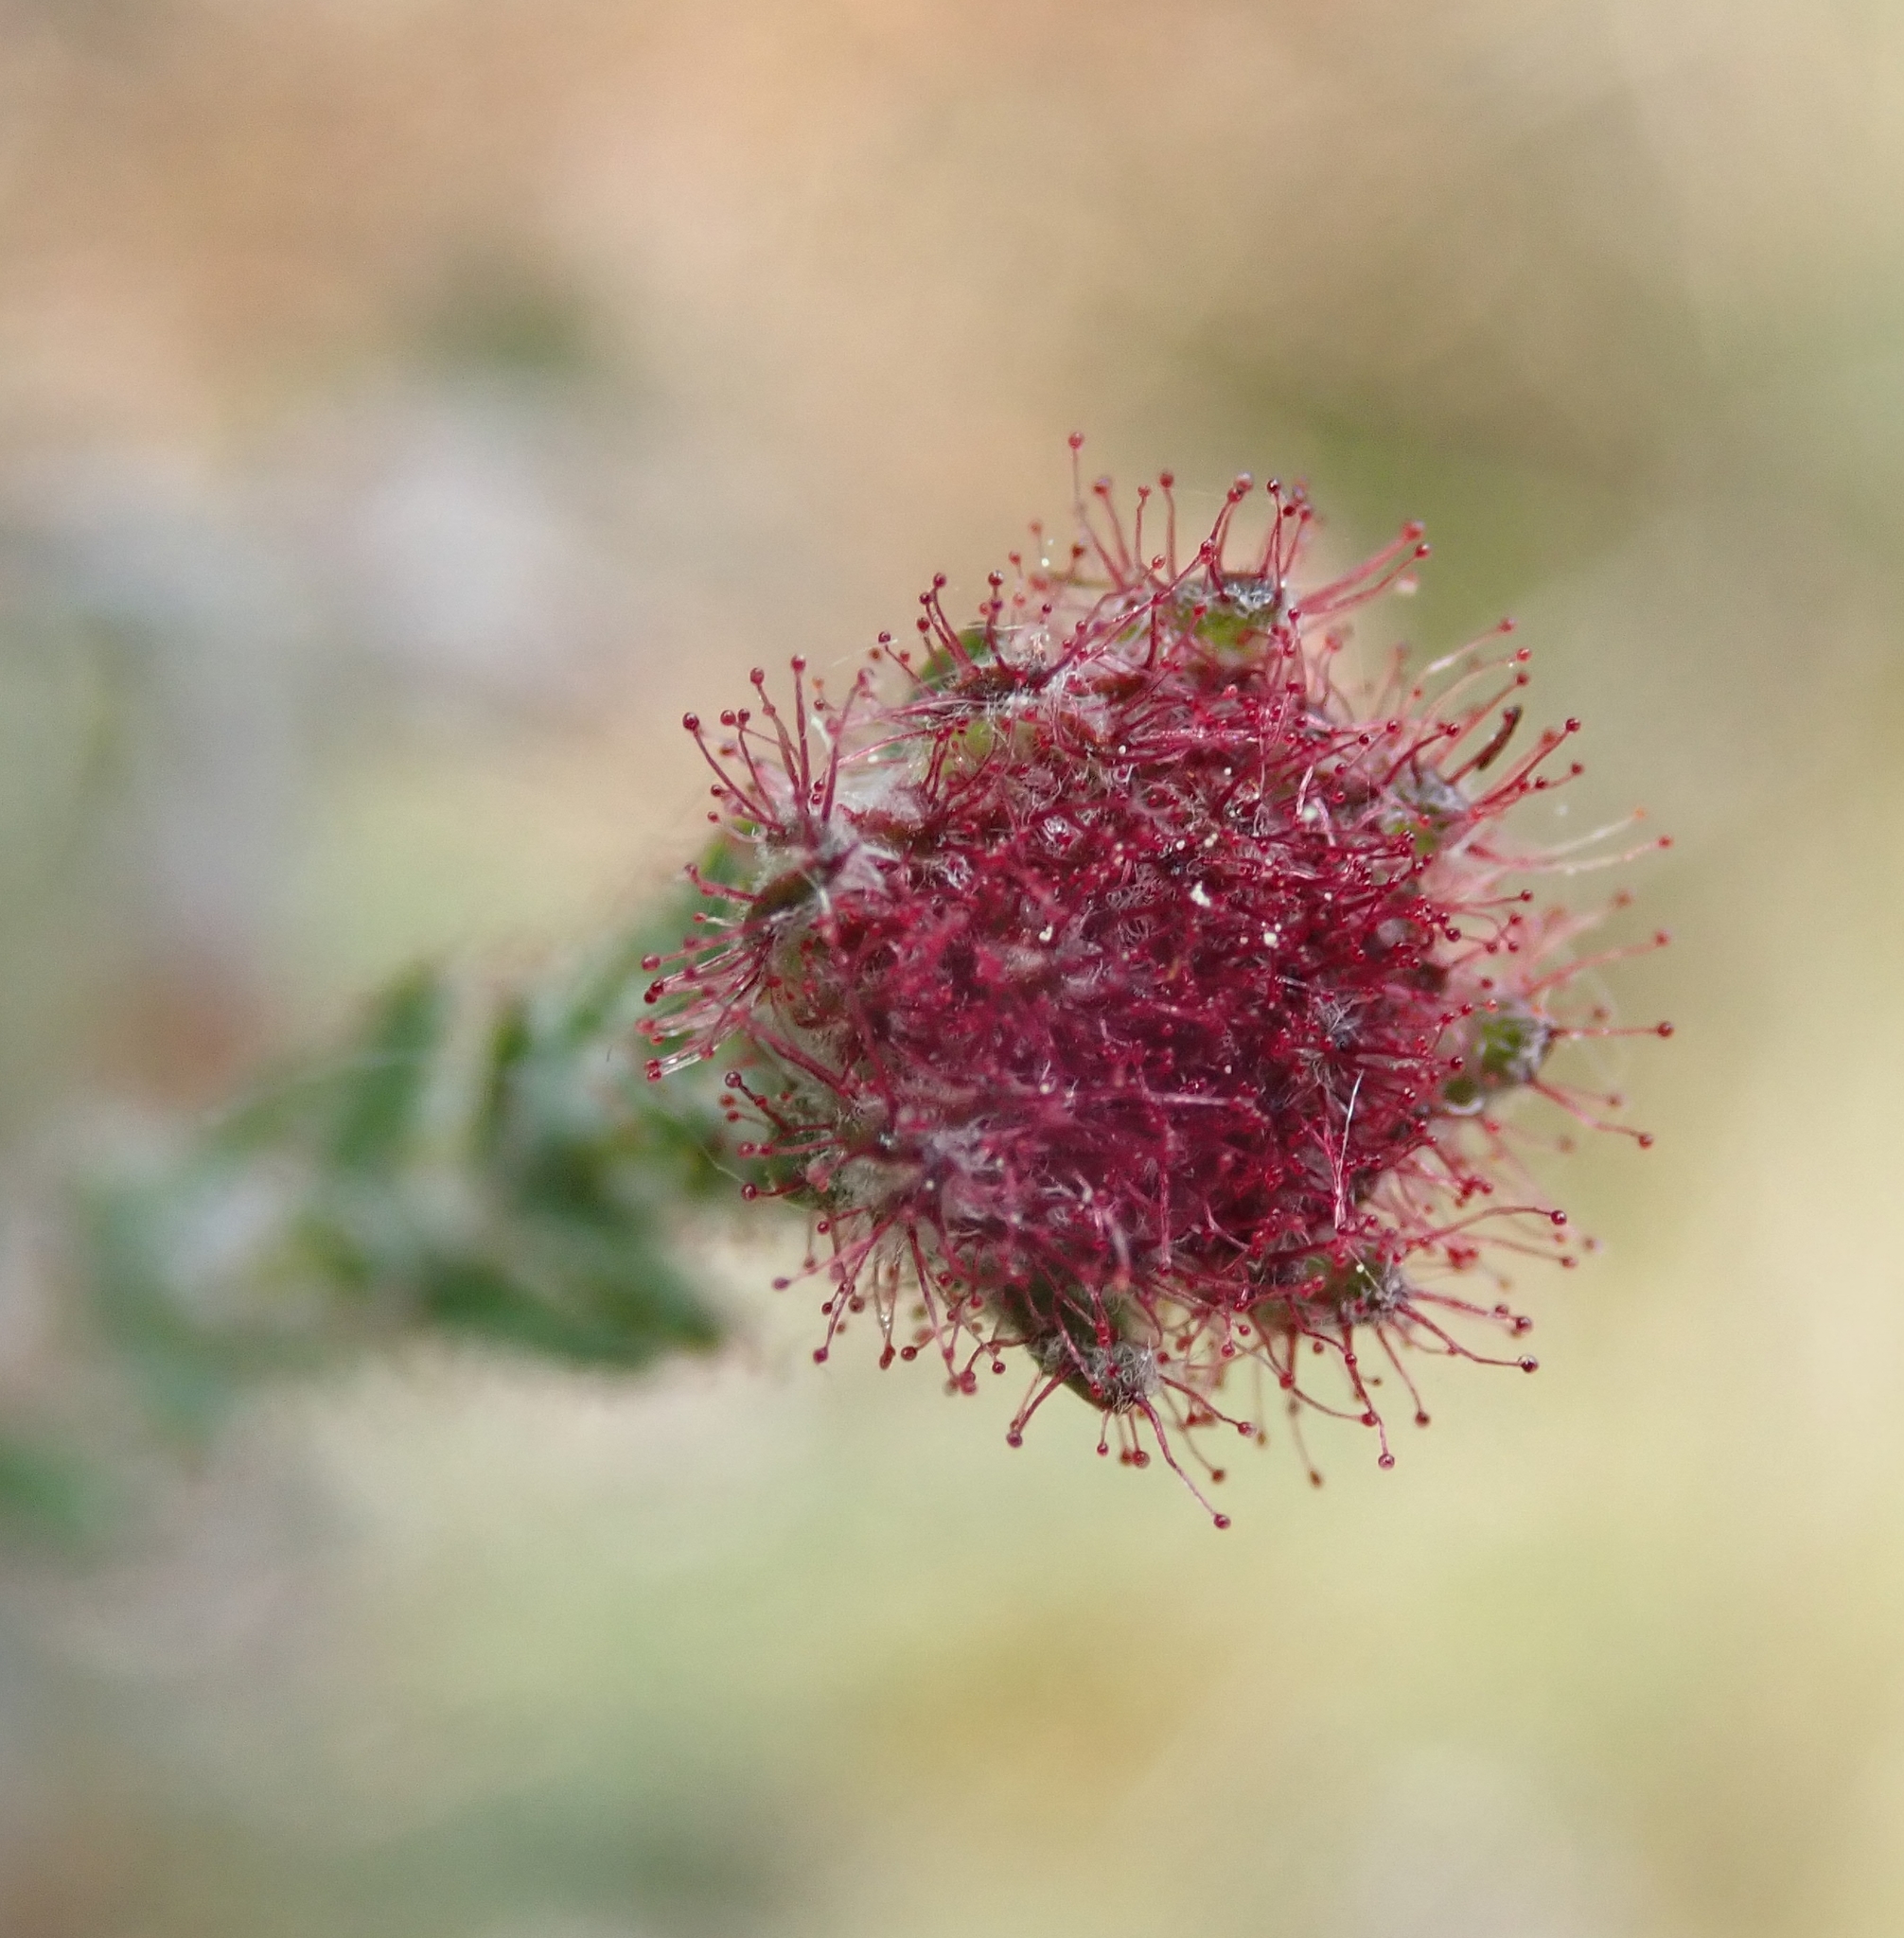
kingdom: Plantae
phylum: Tracheophyta
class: Magnoliopsida
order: Ericales
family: Ericaceae
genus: Erica
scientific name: Erica tetralix
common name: Cross-leaved heath
